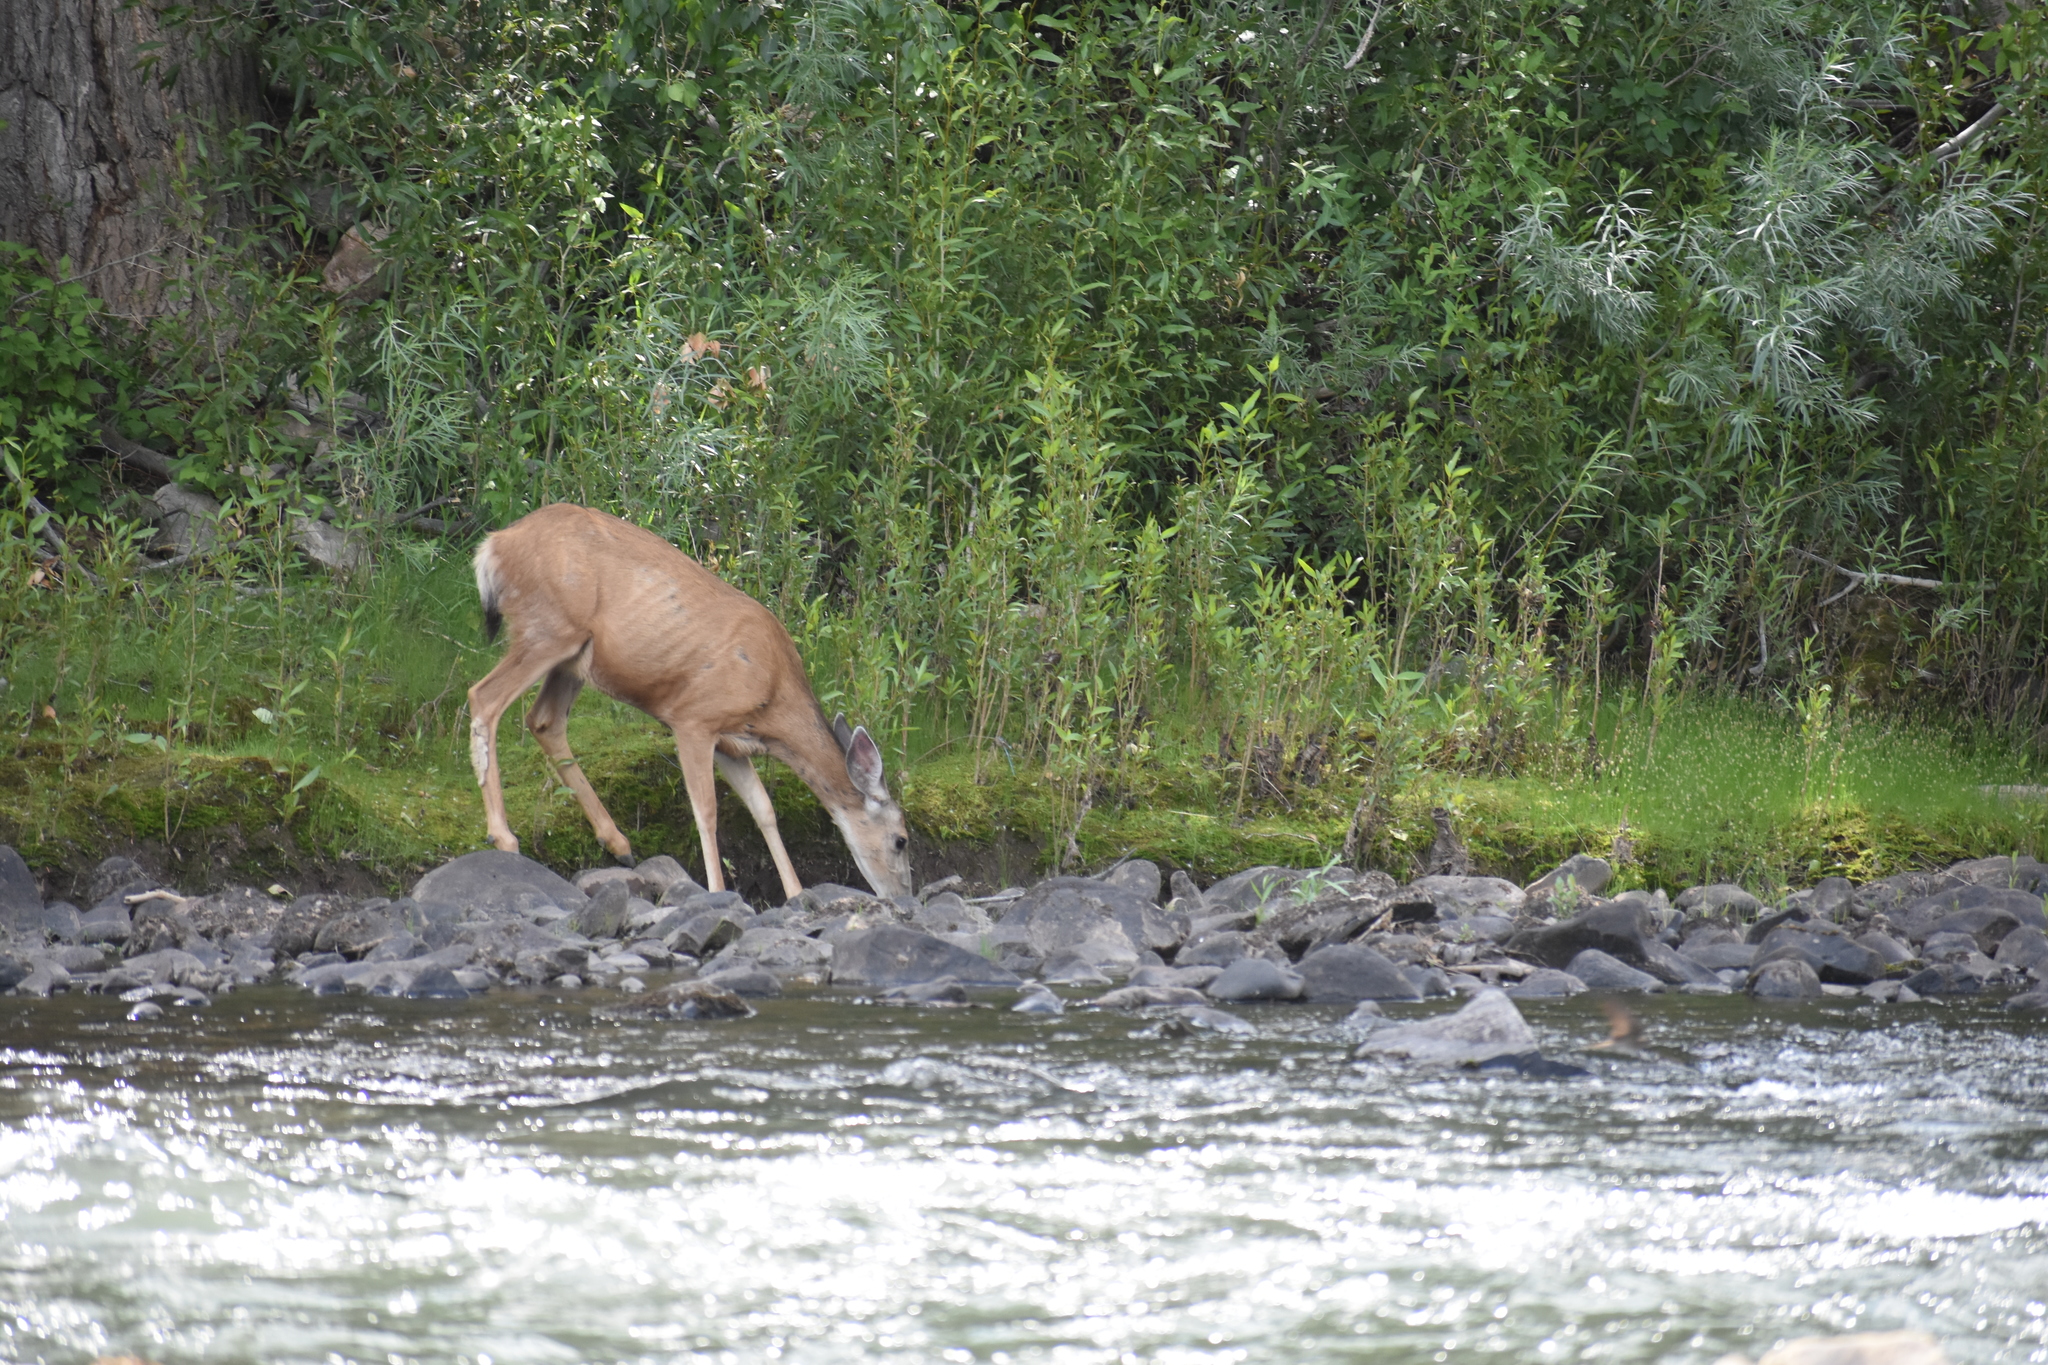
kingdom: Animalia
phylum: Chordata
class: Mammalia
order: Artiodactyla
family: Cervidae
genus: Odocoileus
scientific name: Odocoileus hemionus
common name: Mule deer
